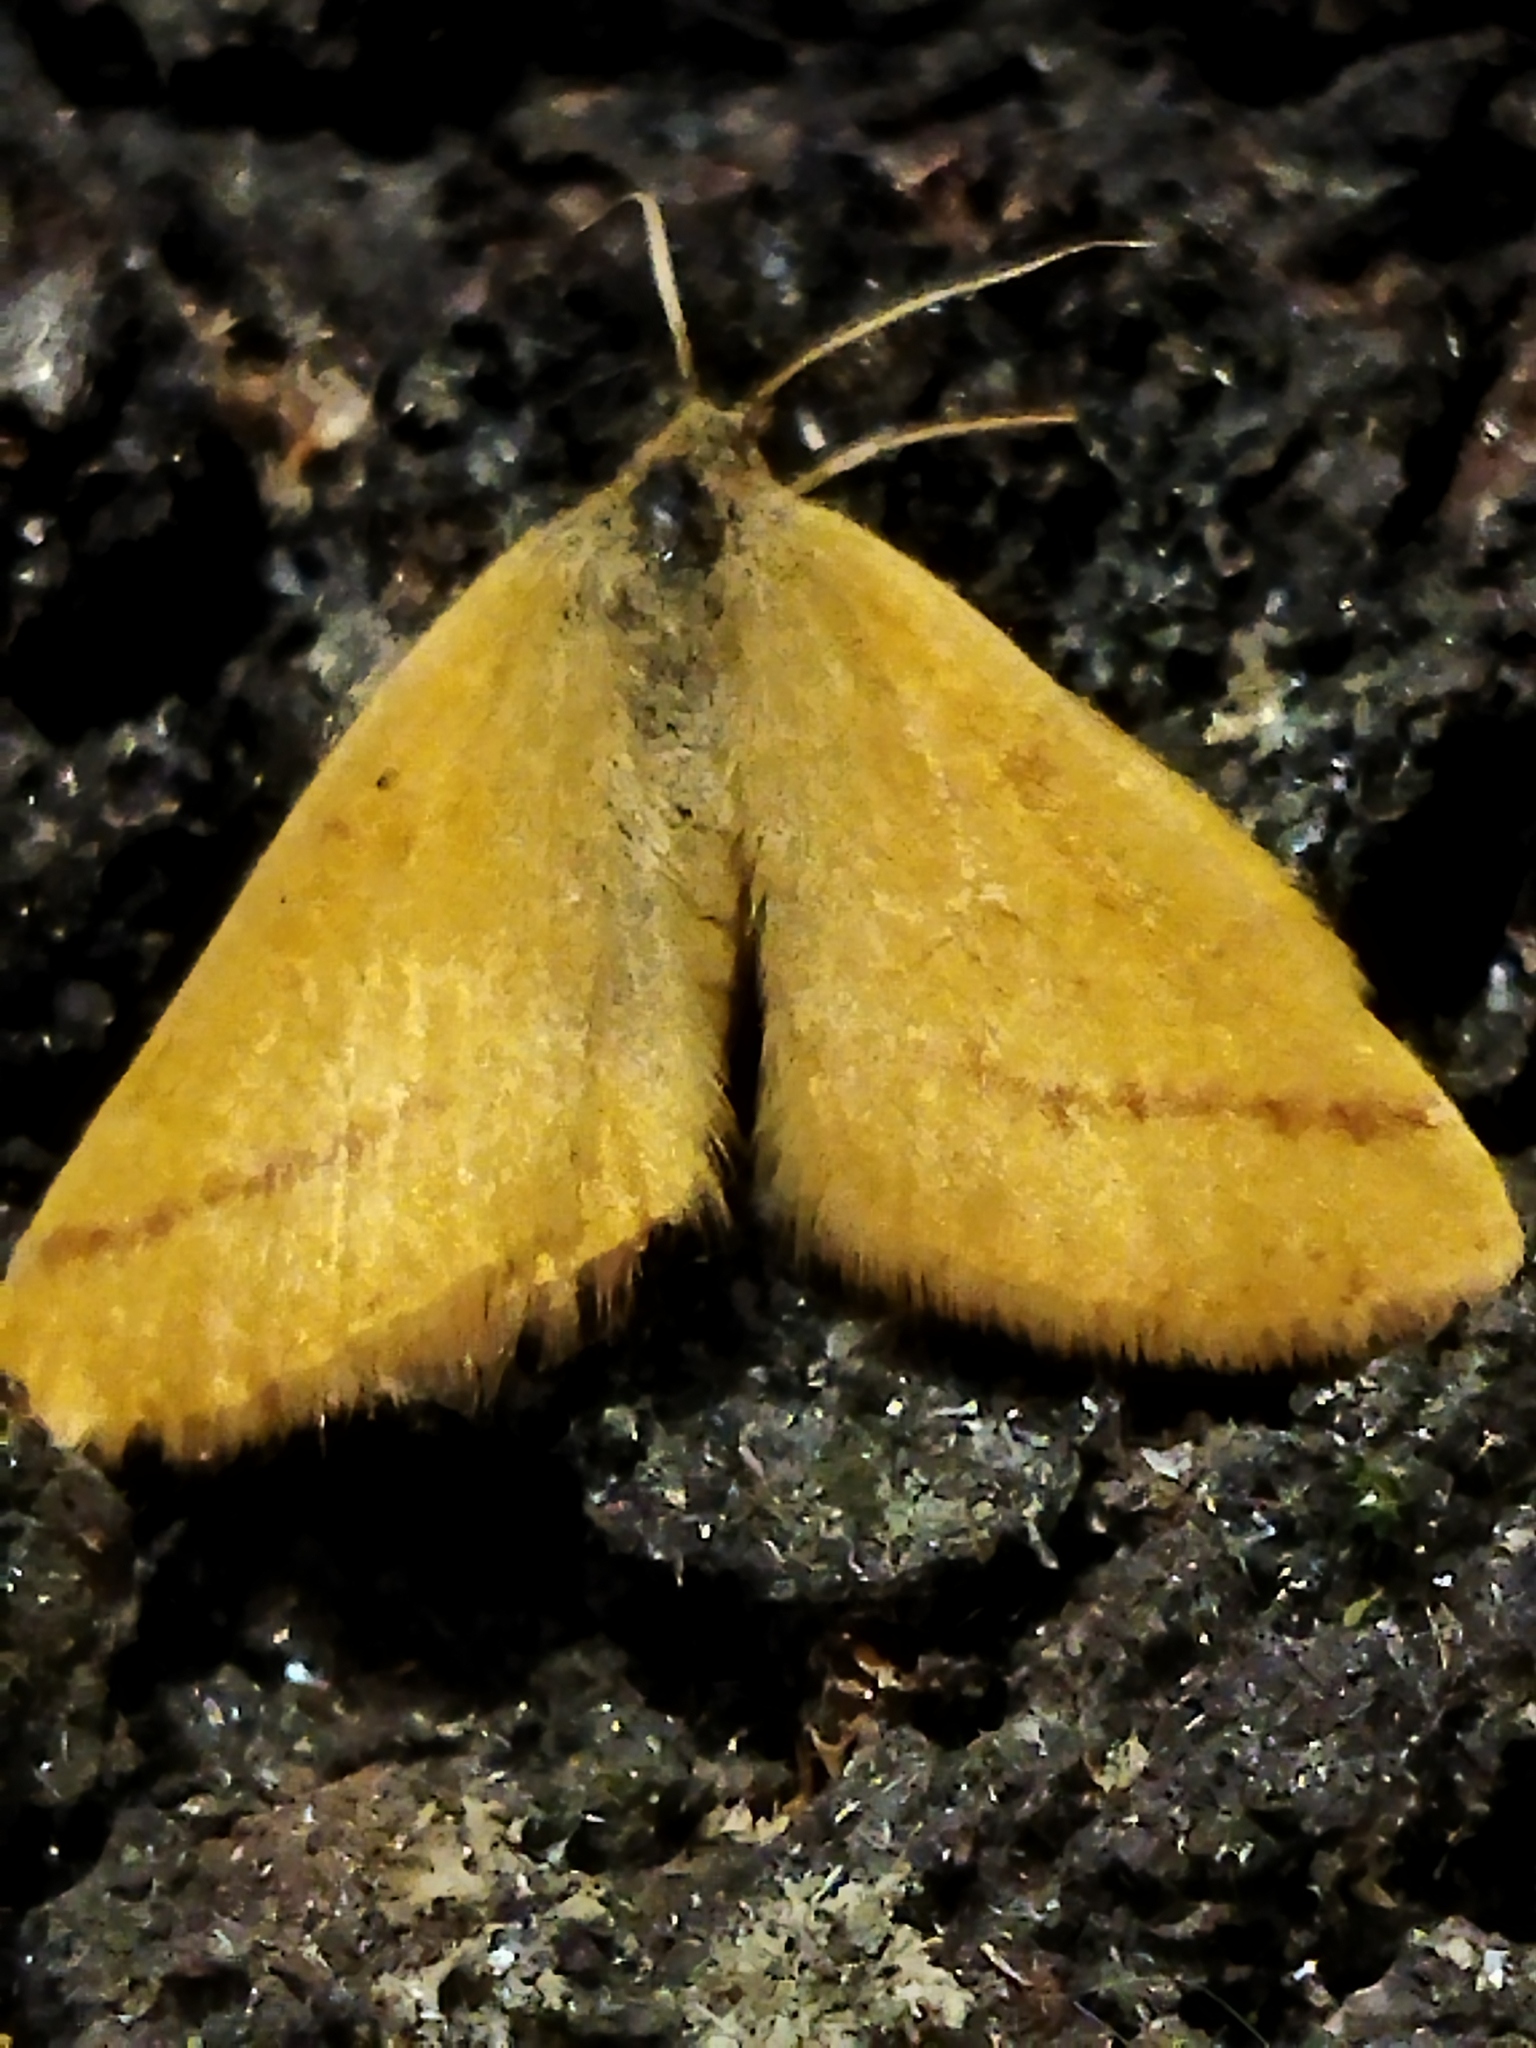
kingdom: Animalia
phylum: Arthropoda
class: Insecta
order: Lepidoptera
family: Geometridae
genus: Lythria
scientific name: Lythria purpuraria
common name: Purple-barred yellow
